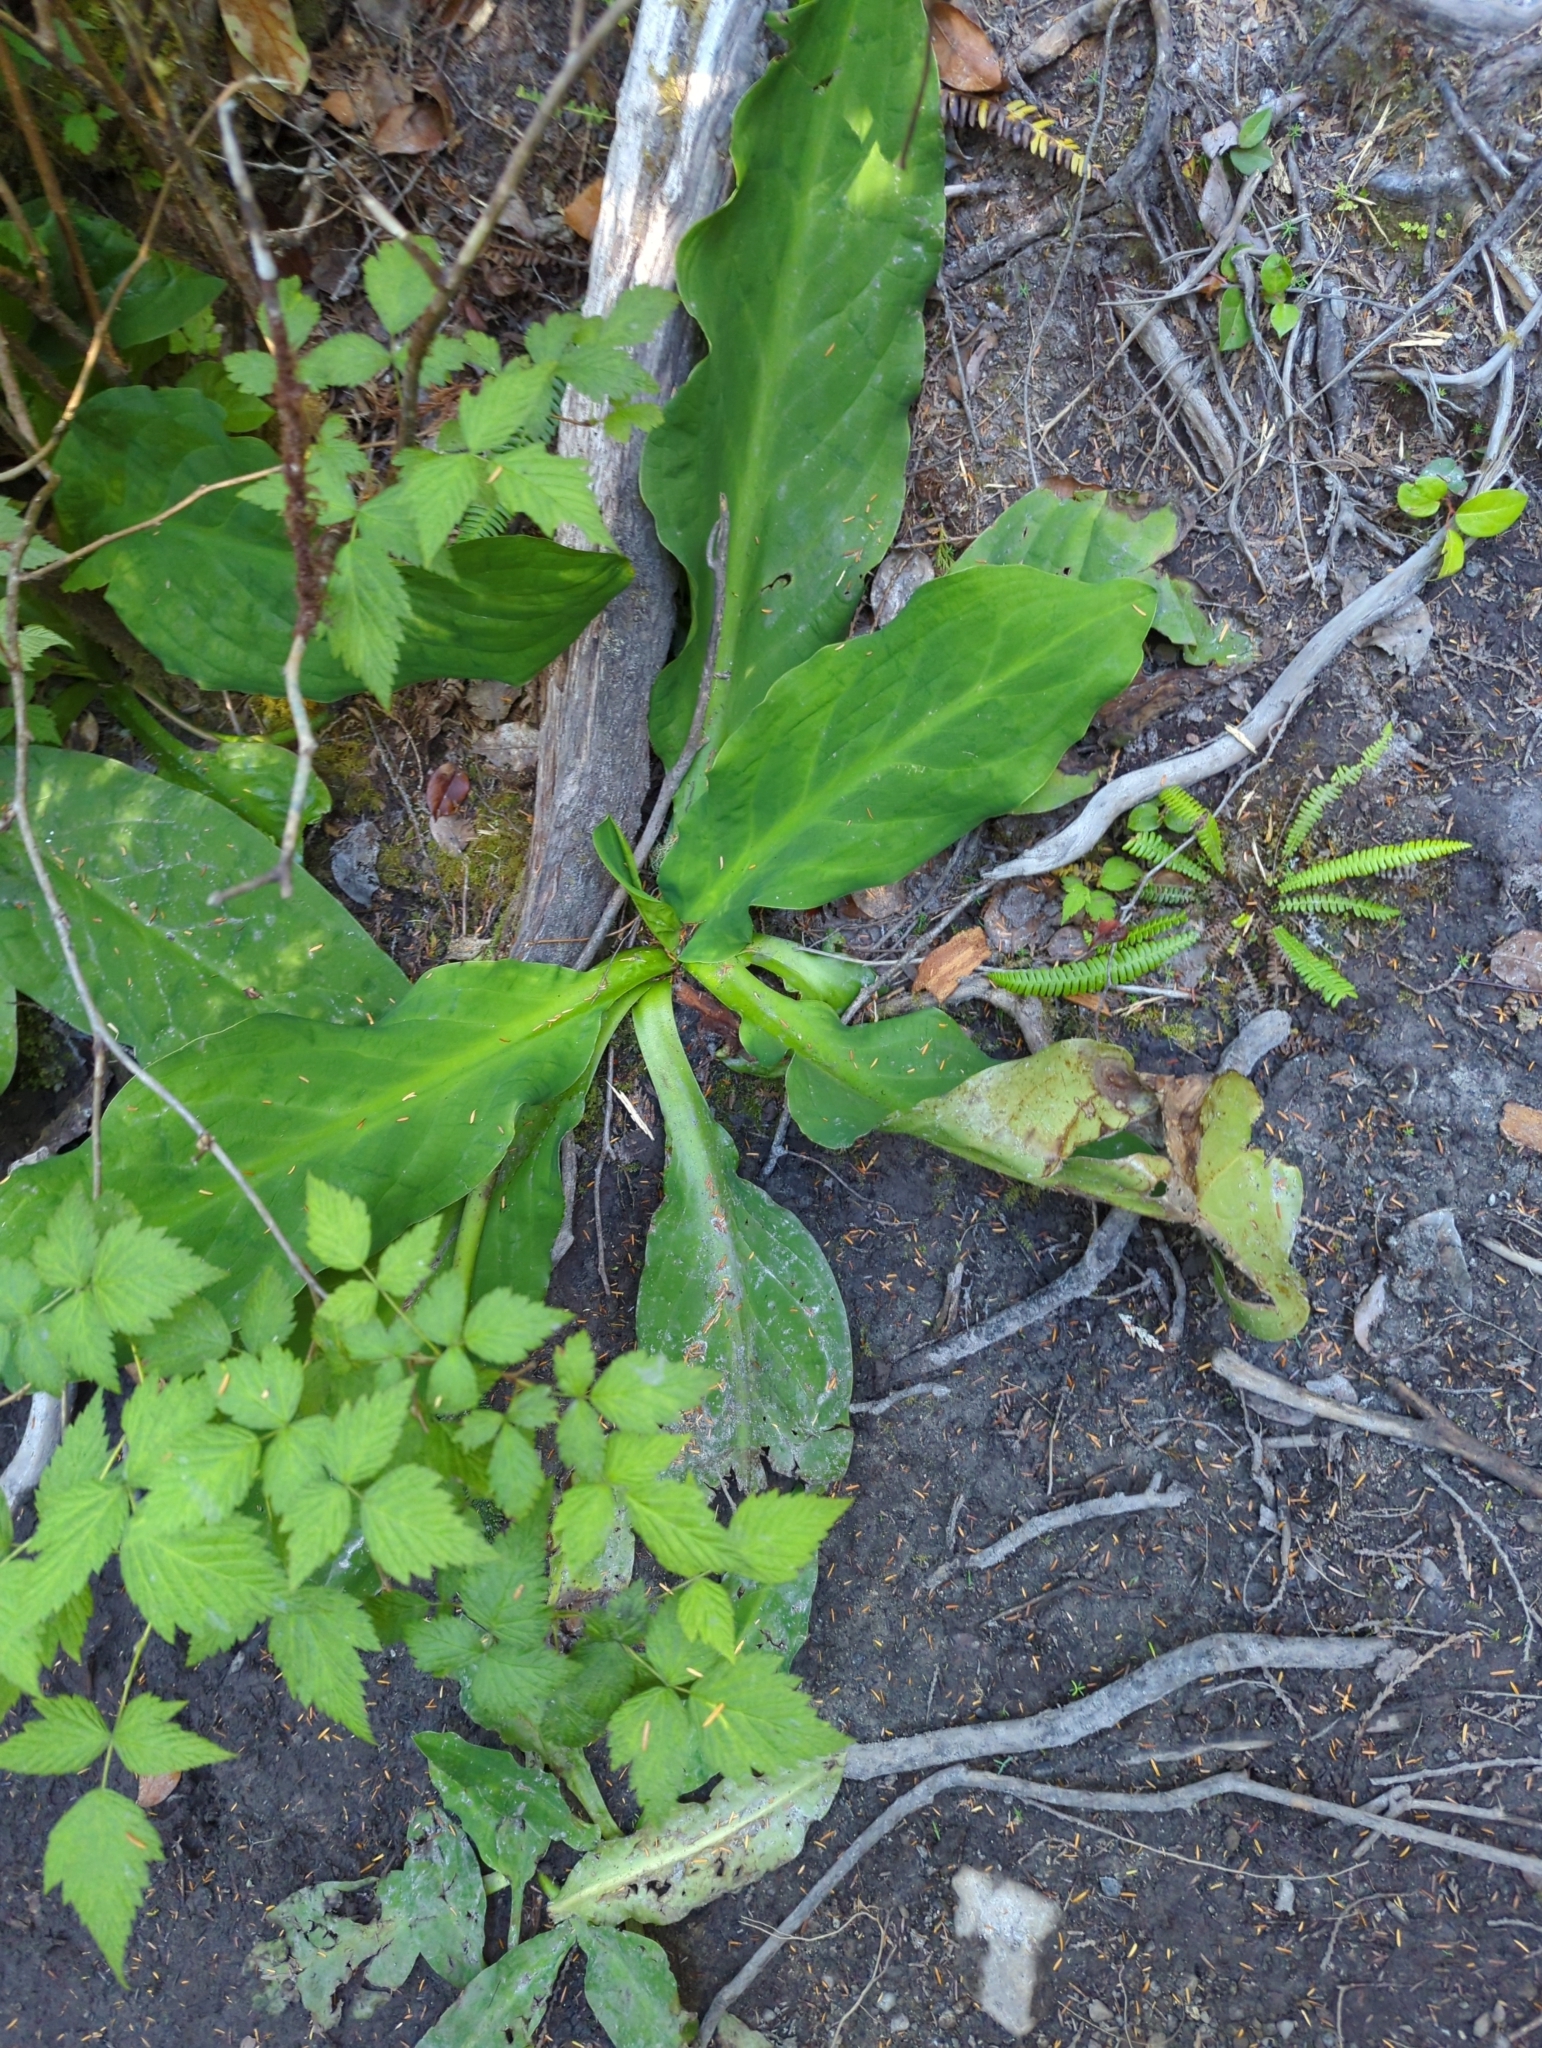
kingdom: Plantae
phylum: Tracheophyta
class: Liliopsida
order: Alismatales
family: Araceae
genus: Lysichiton
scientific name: Lysichiton americanus
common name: American skunk cabbage
